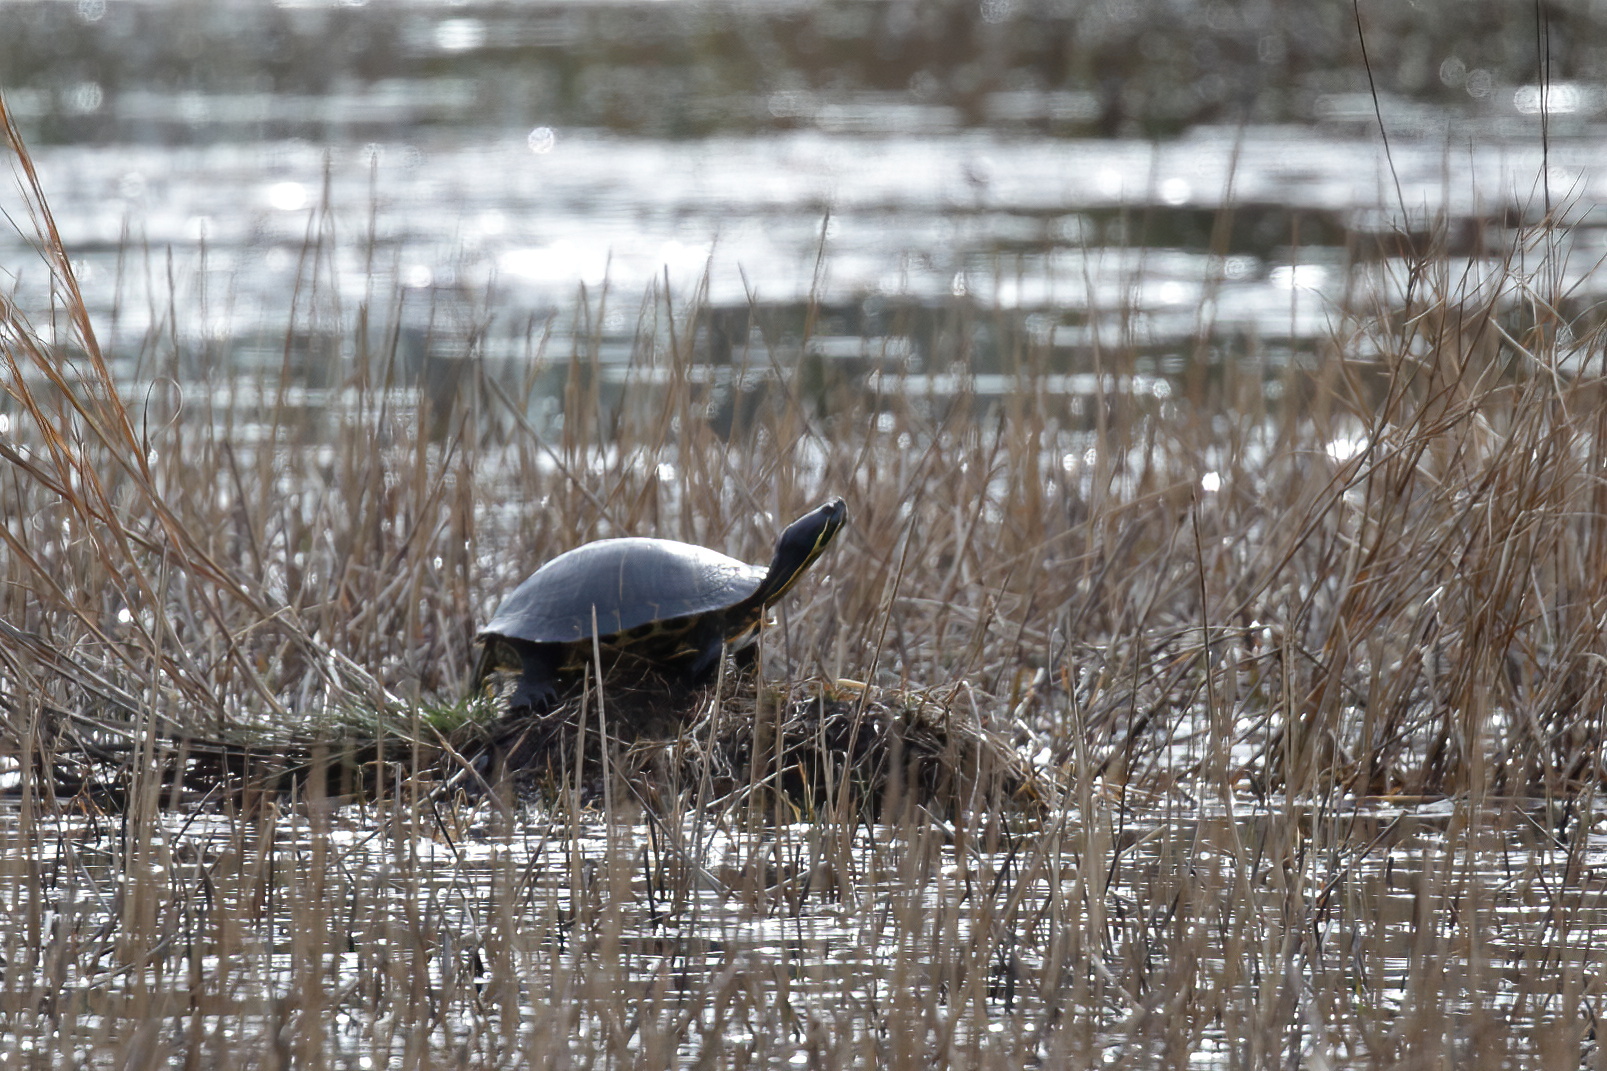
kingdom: Animalia
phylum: Chordata
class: Testudines
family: Emydidae
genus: Trachemys
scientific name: Trachemys scripta
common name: Slider
